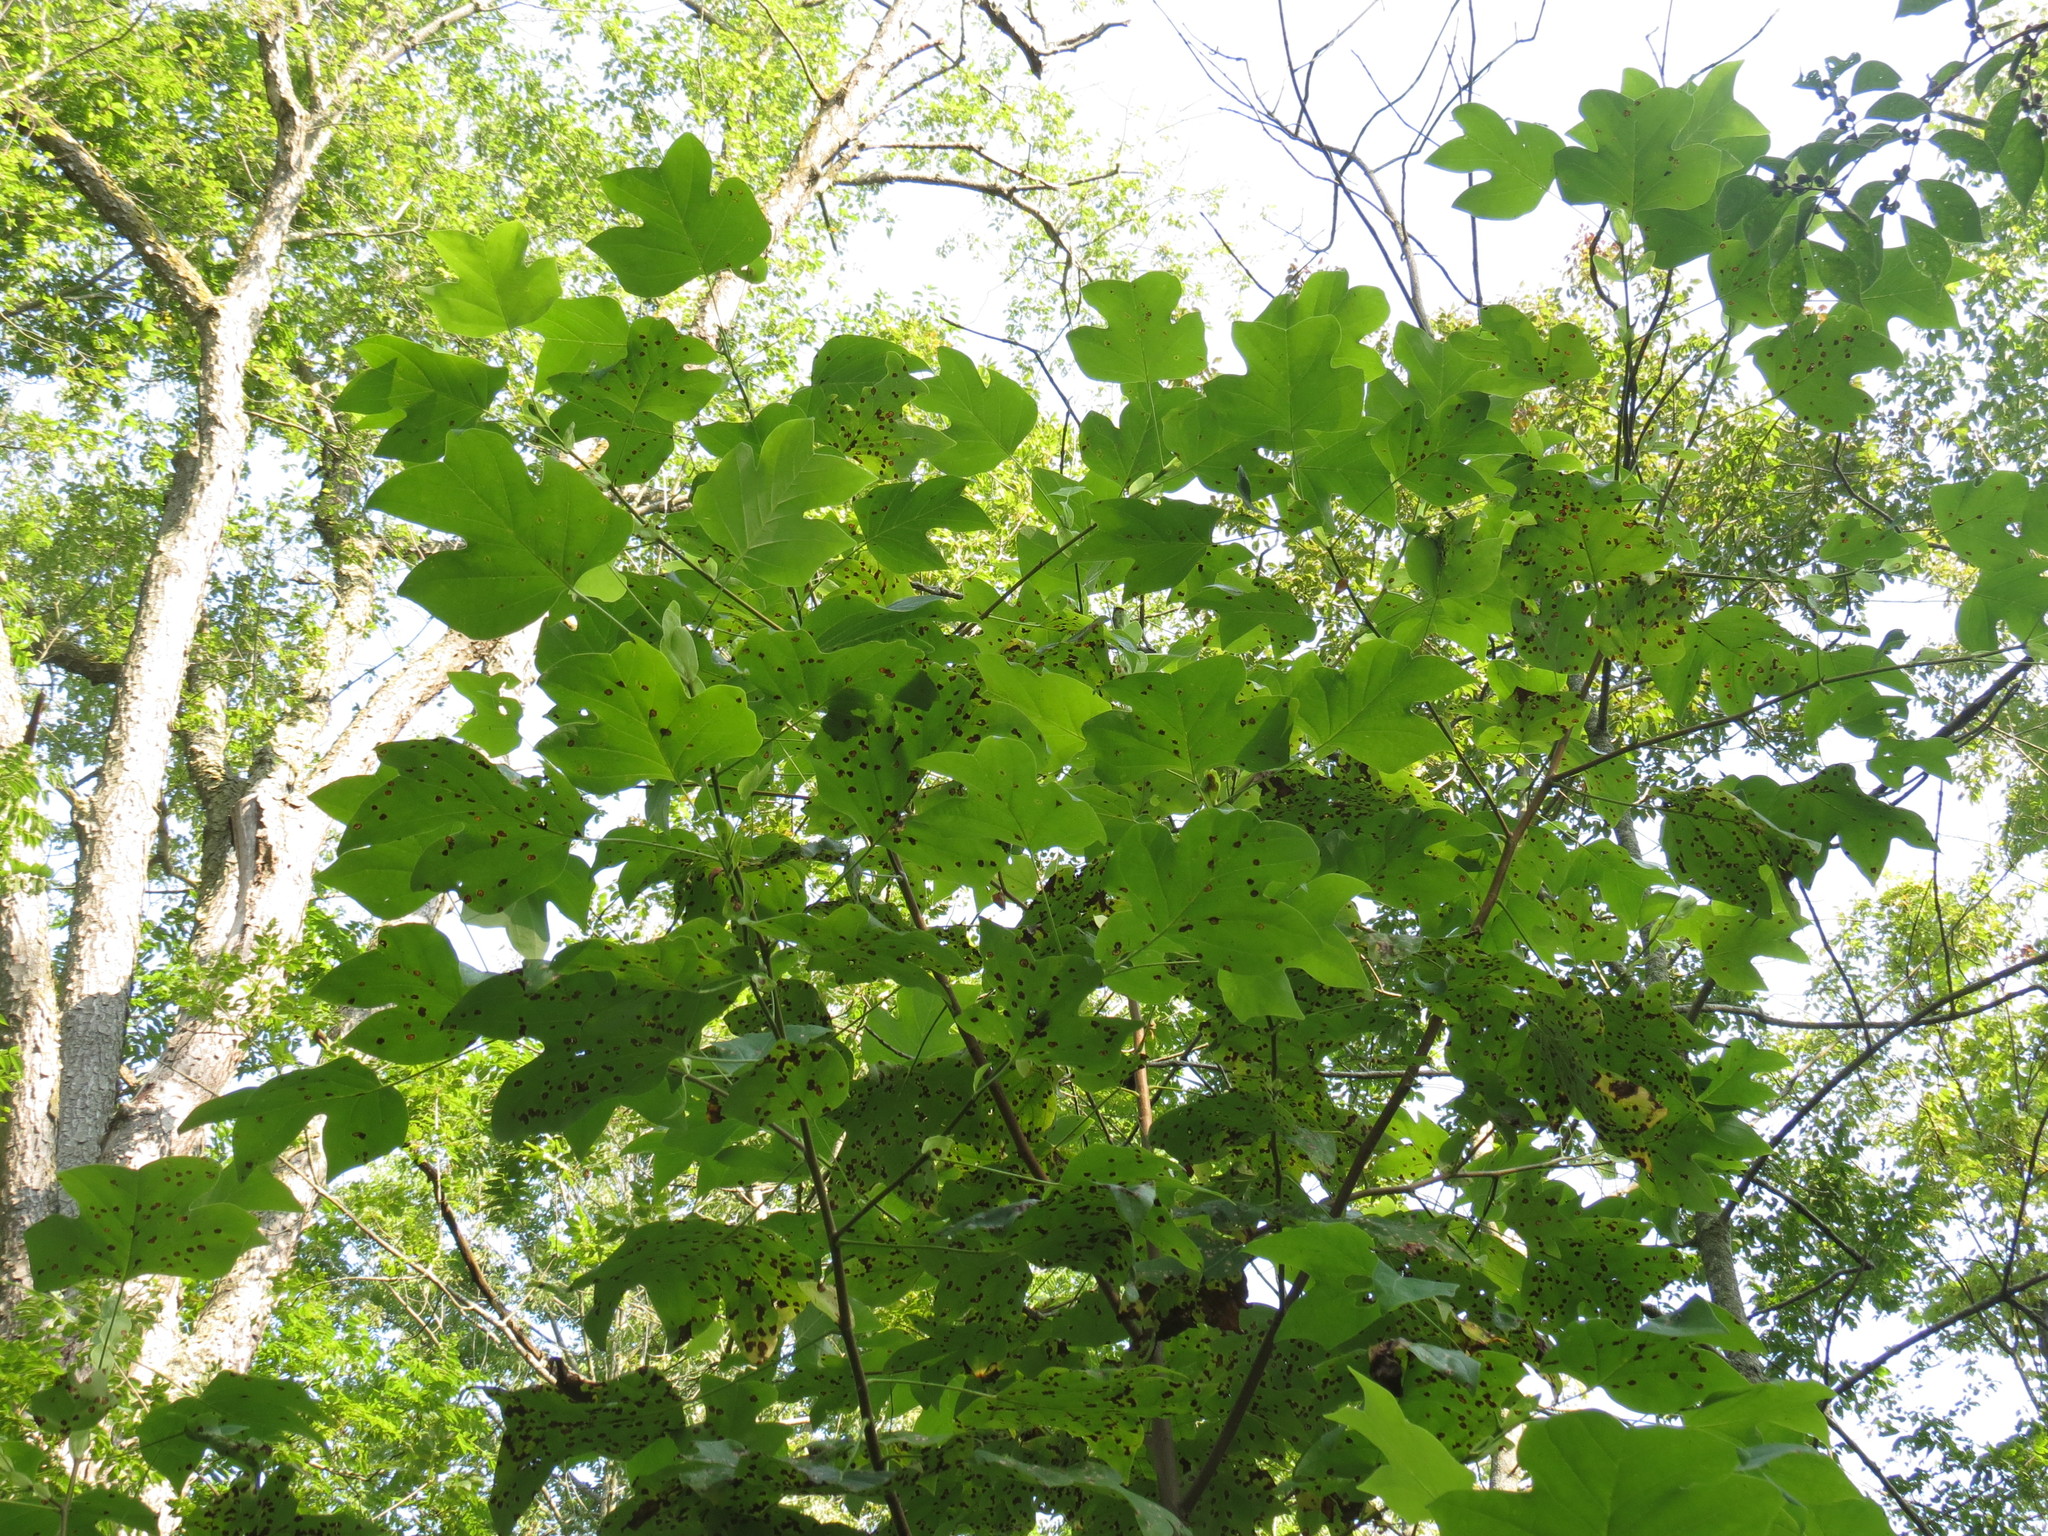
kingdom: Plantae
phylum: Tracheophyta
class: Magnoliopsida
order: Magnoliales
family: Magnoliaceae
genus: Liriodendron
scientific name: Liriodendron tulipifera
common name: Tulip tree
